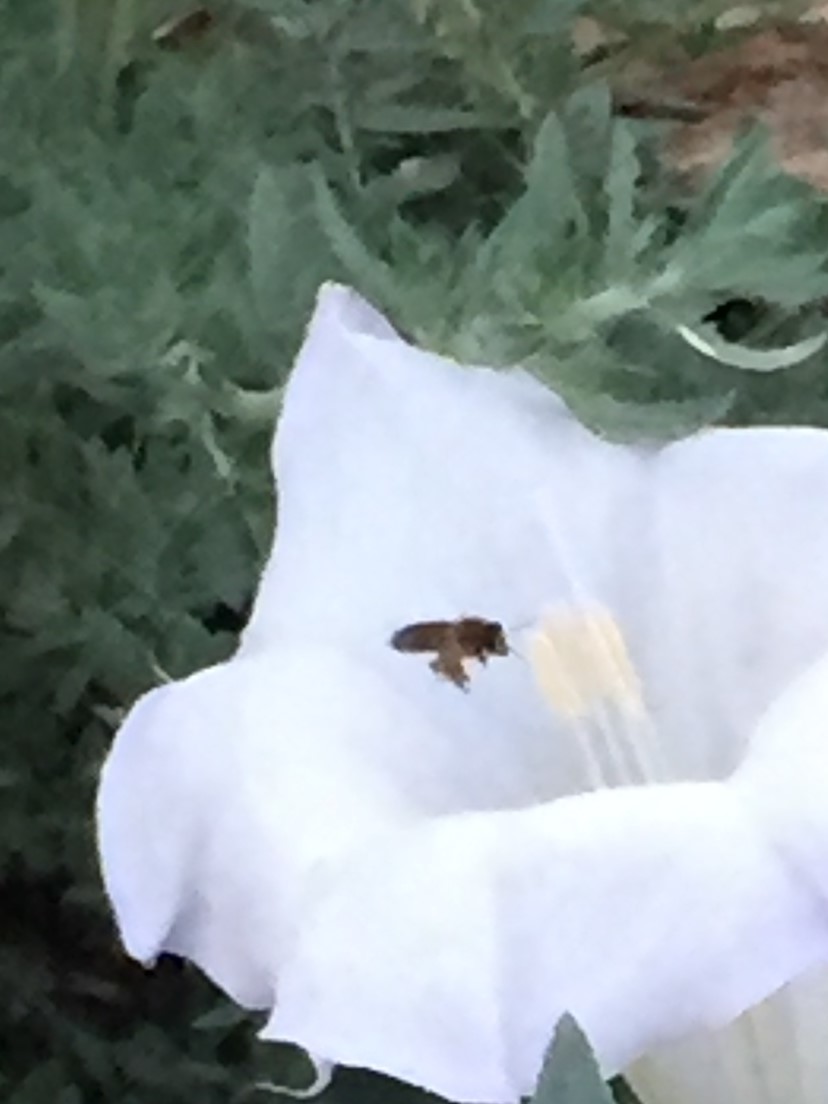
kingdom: Animalia
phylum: Arthropoda
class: Insecta
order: Hymenoptera
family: Apidae
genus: Apis
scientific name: Apis mellifera
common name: Honey bee
